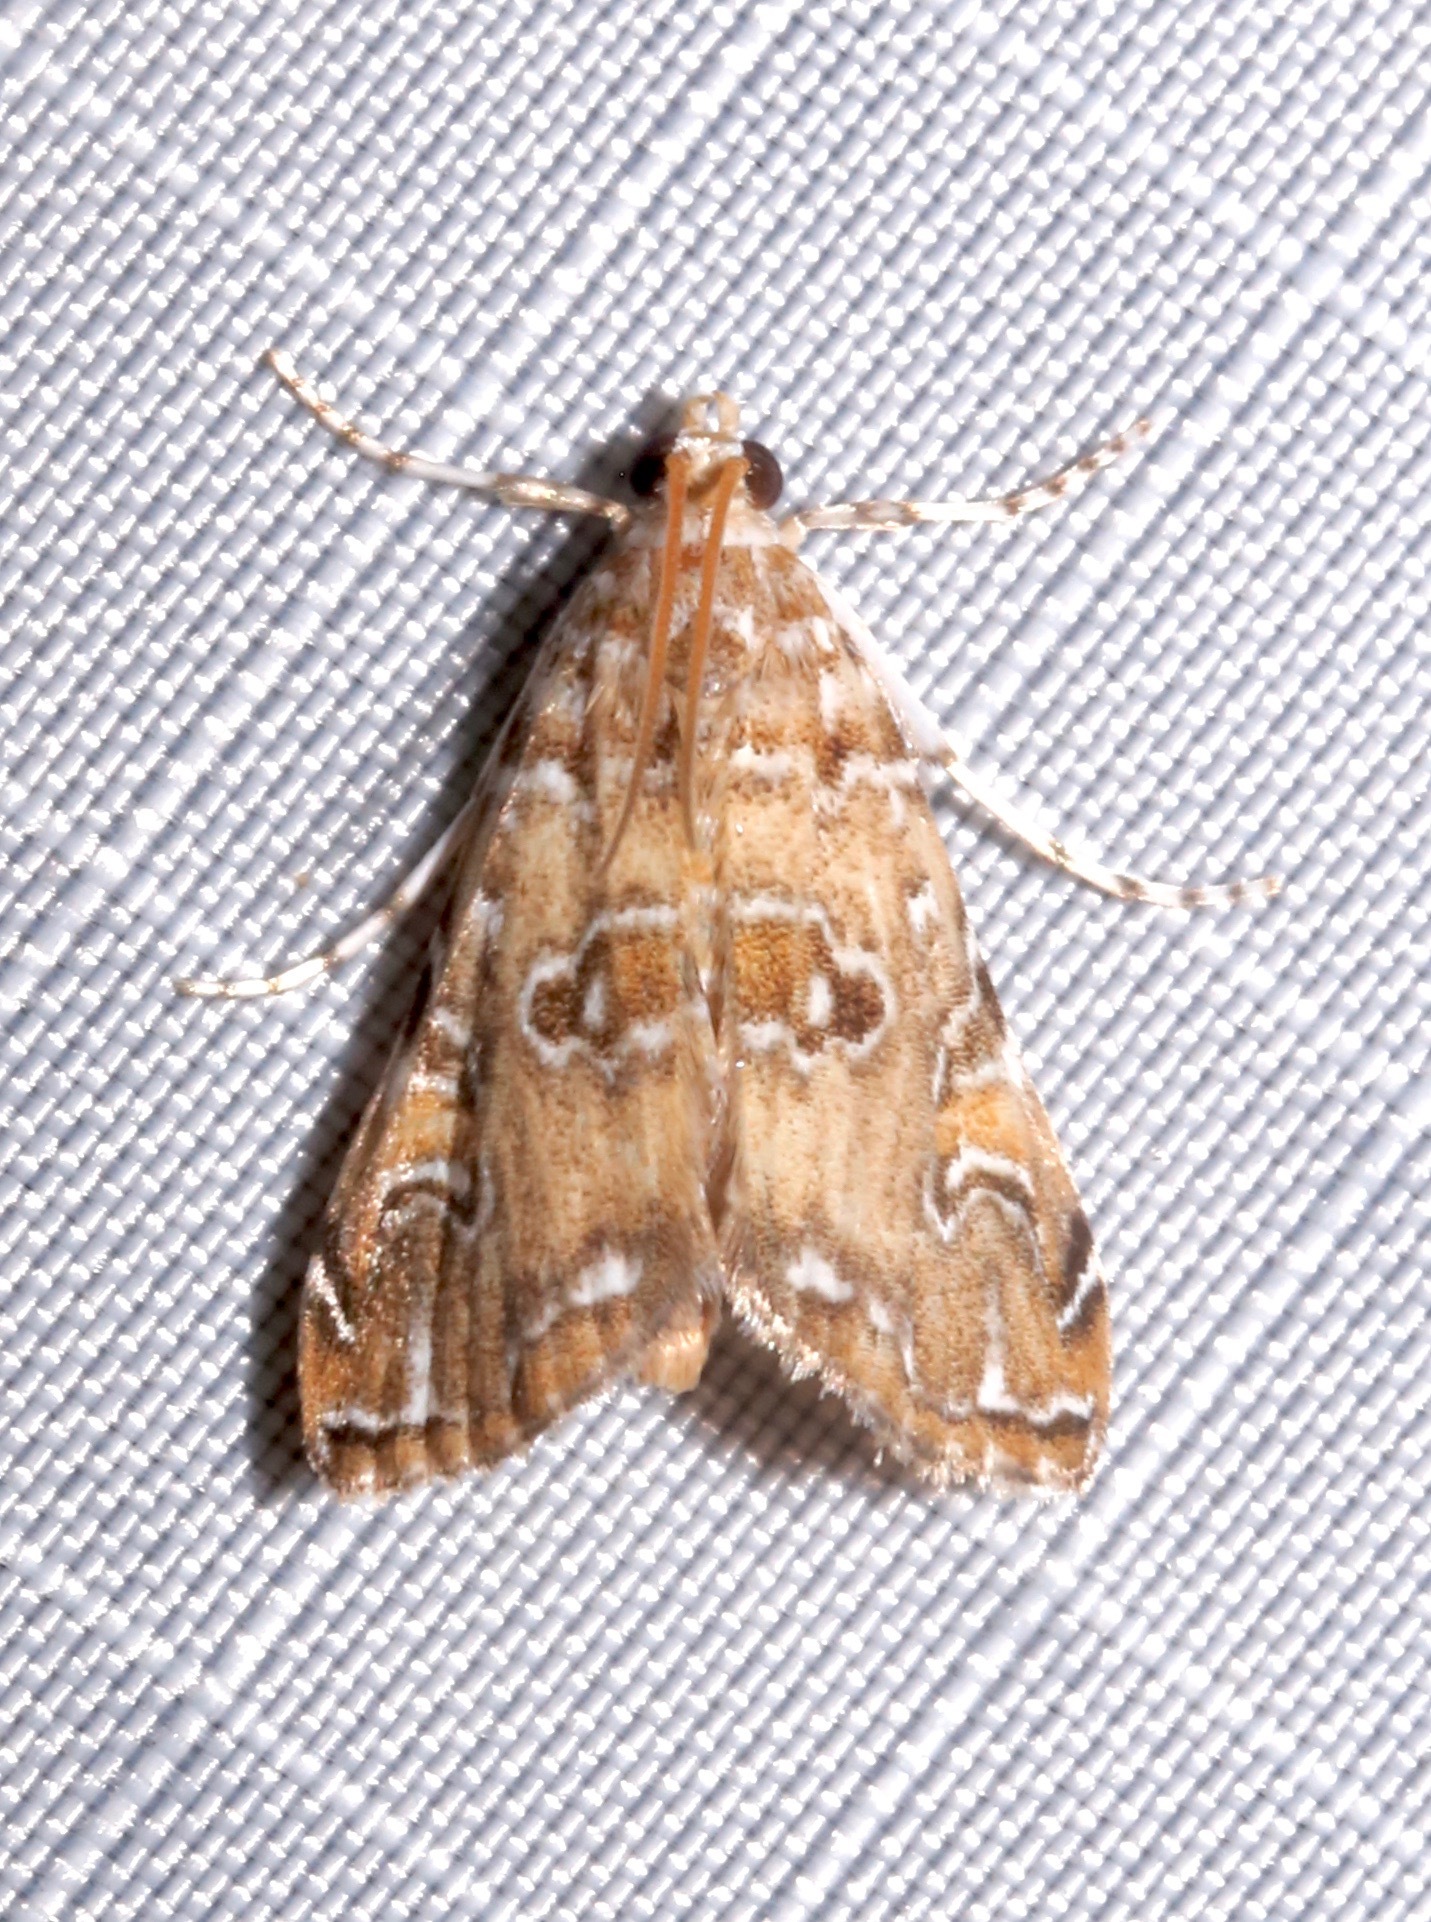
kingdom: Animalia
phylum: Arthropoda
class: Insecta
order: Lepidoptera
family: Crambidae
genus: Elophila
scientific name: Elophila gyralis
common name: Waterlily borer moth
